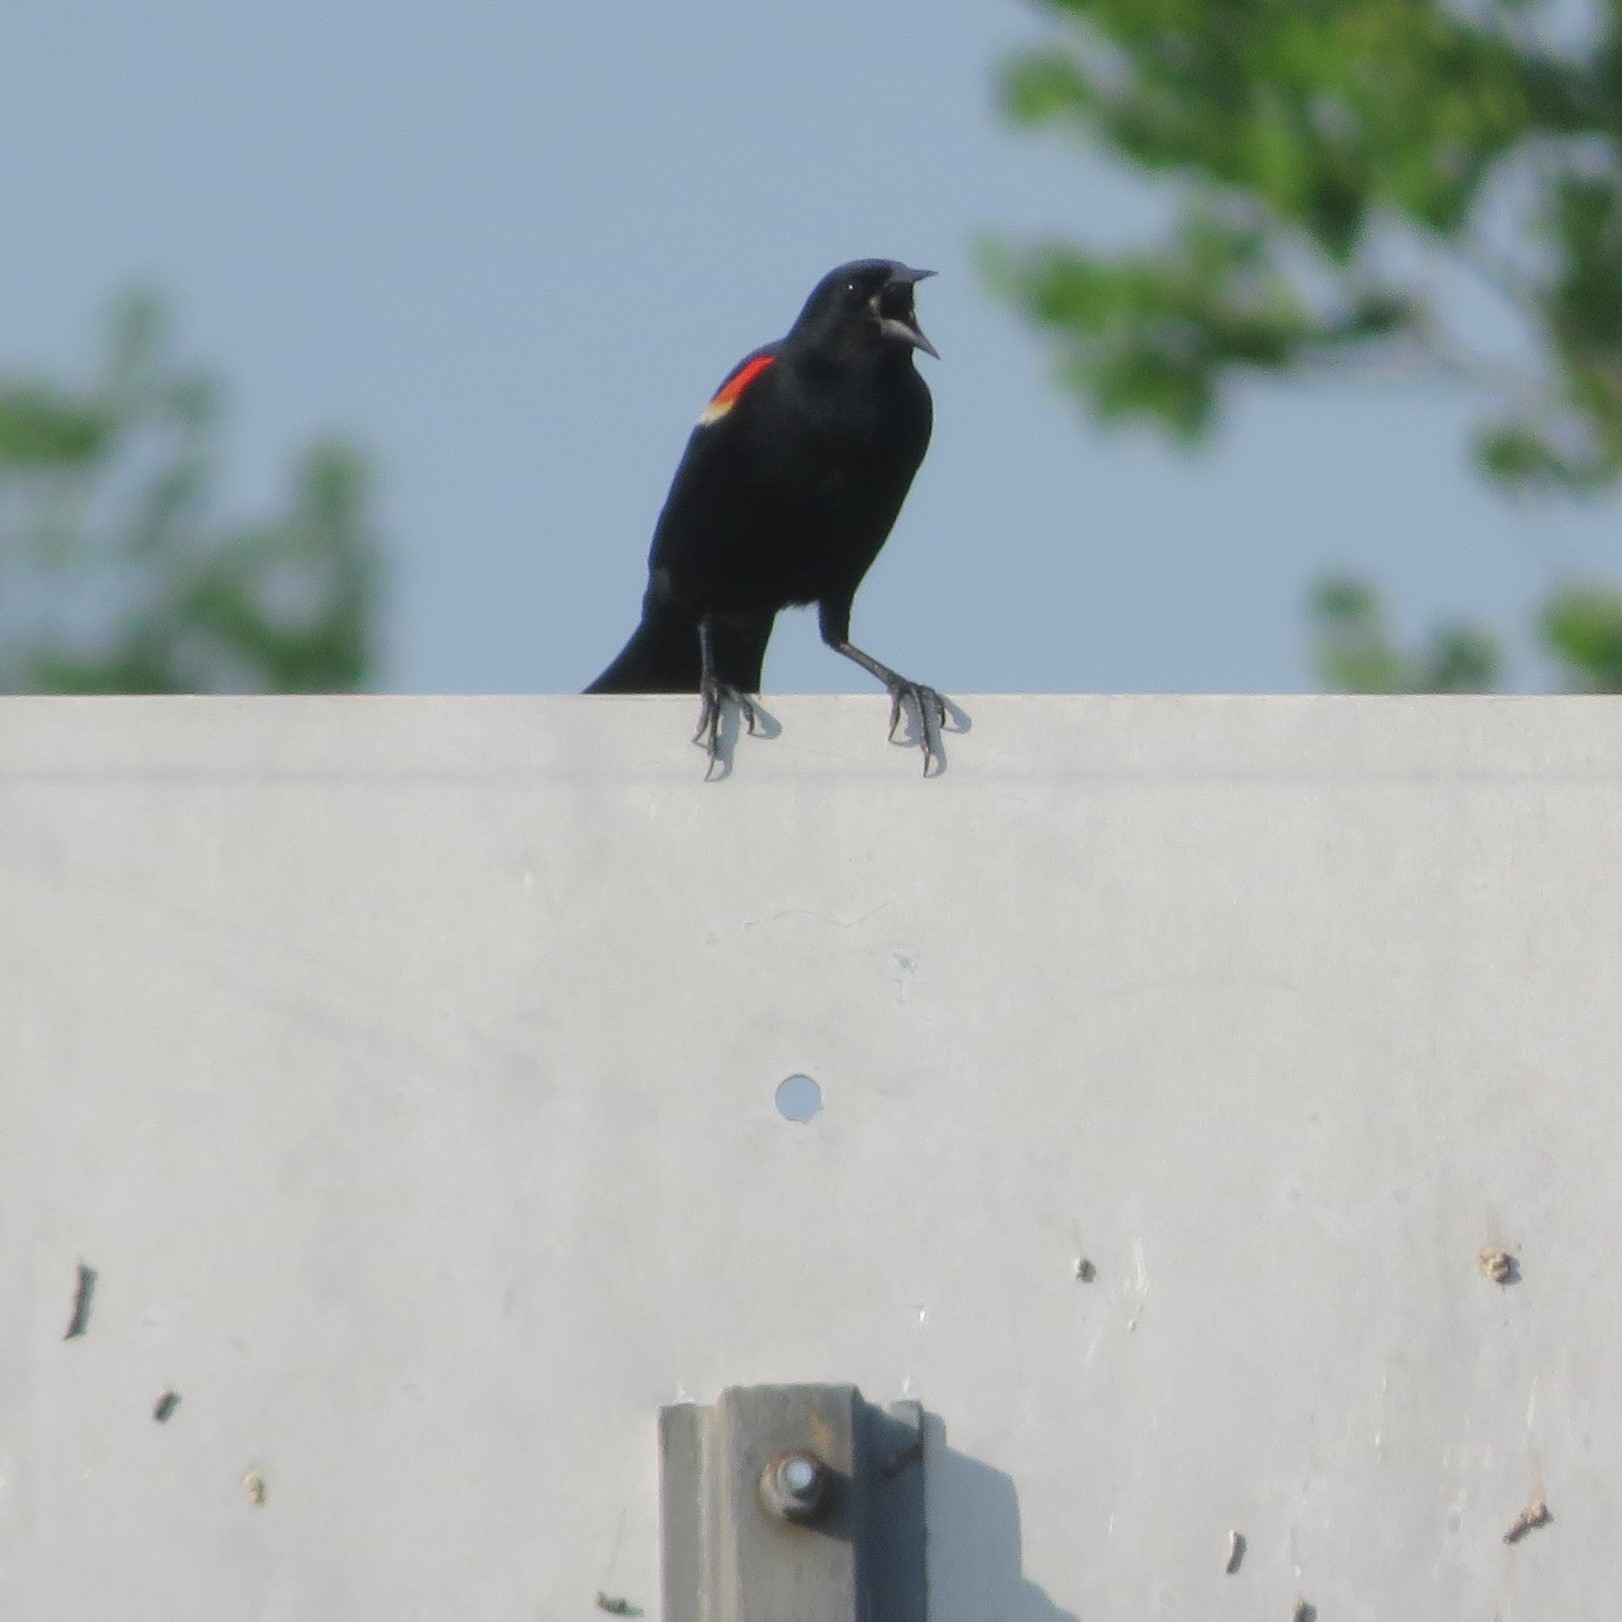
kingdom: Animalia
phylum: Chordata
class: Aves
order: Passeriformes
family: Icteridae
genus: Agelaius
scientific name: Agelaius phoeniceus
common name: Red-winged blackbird
